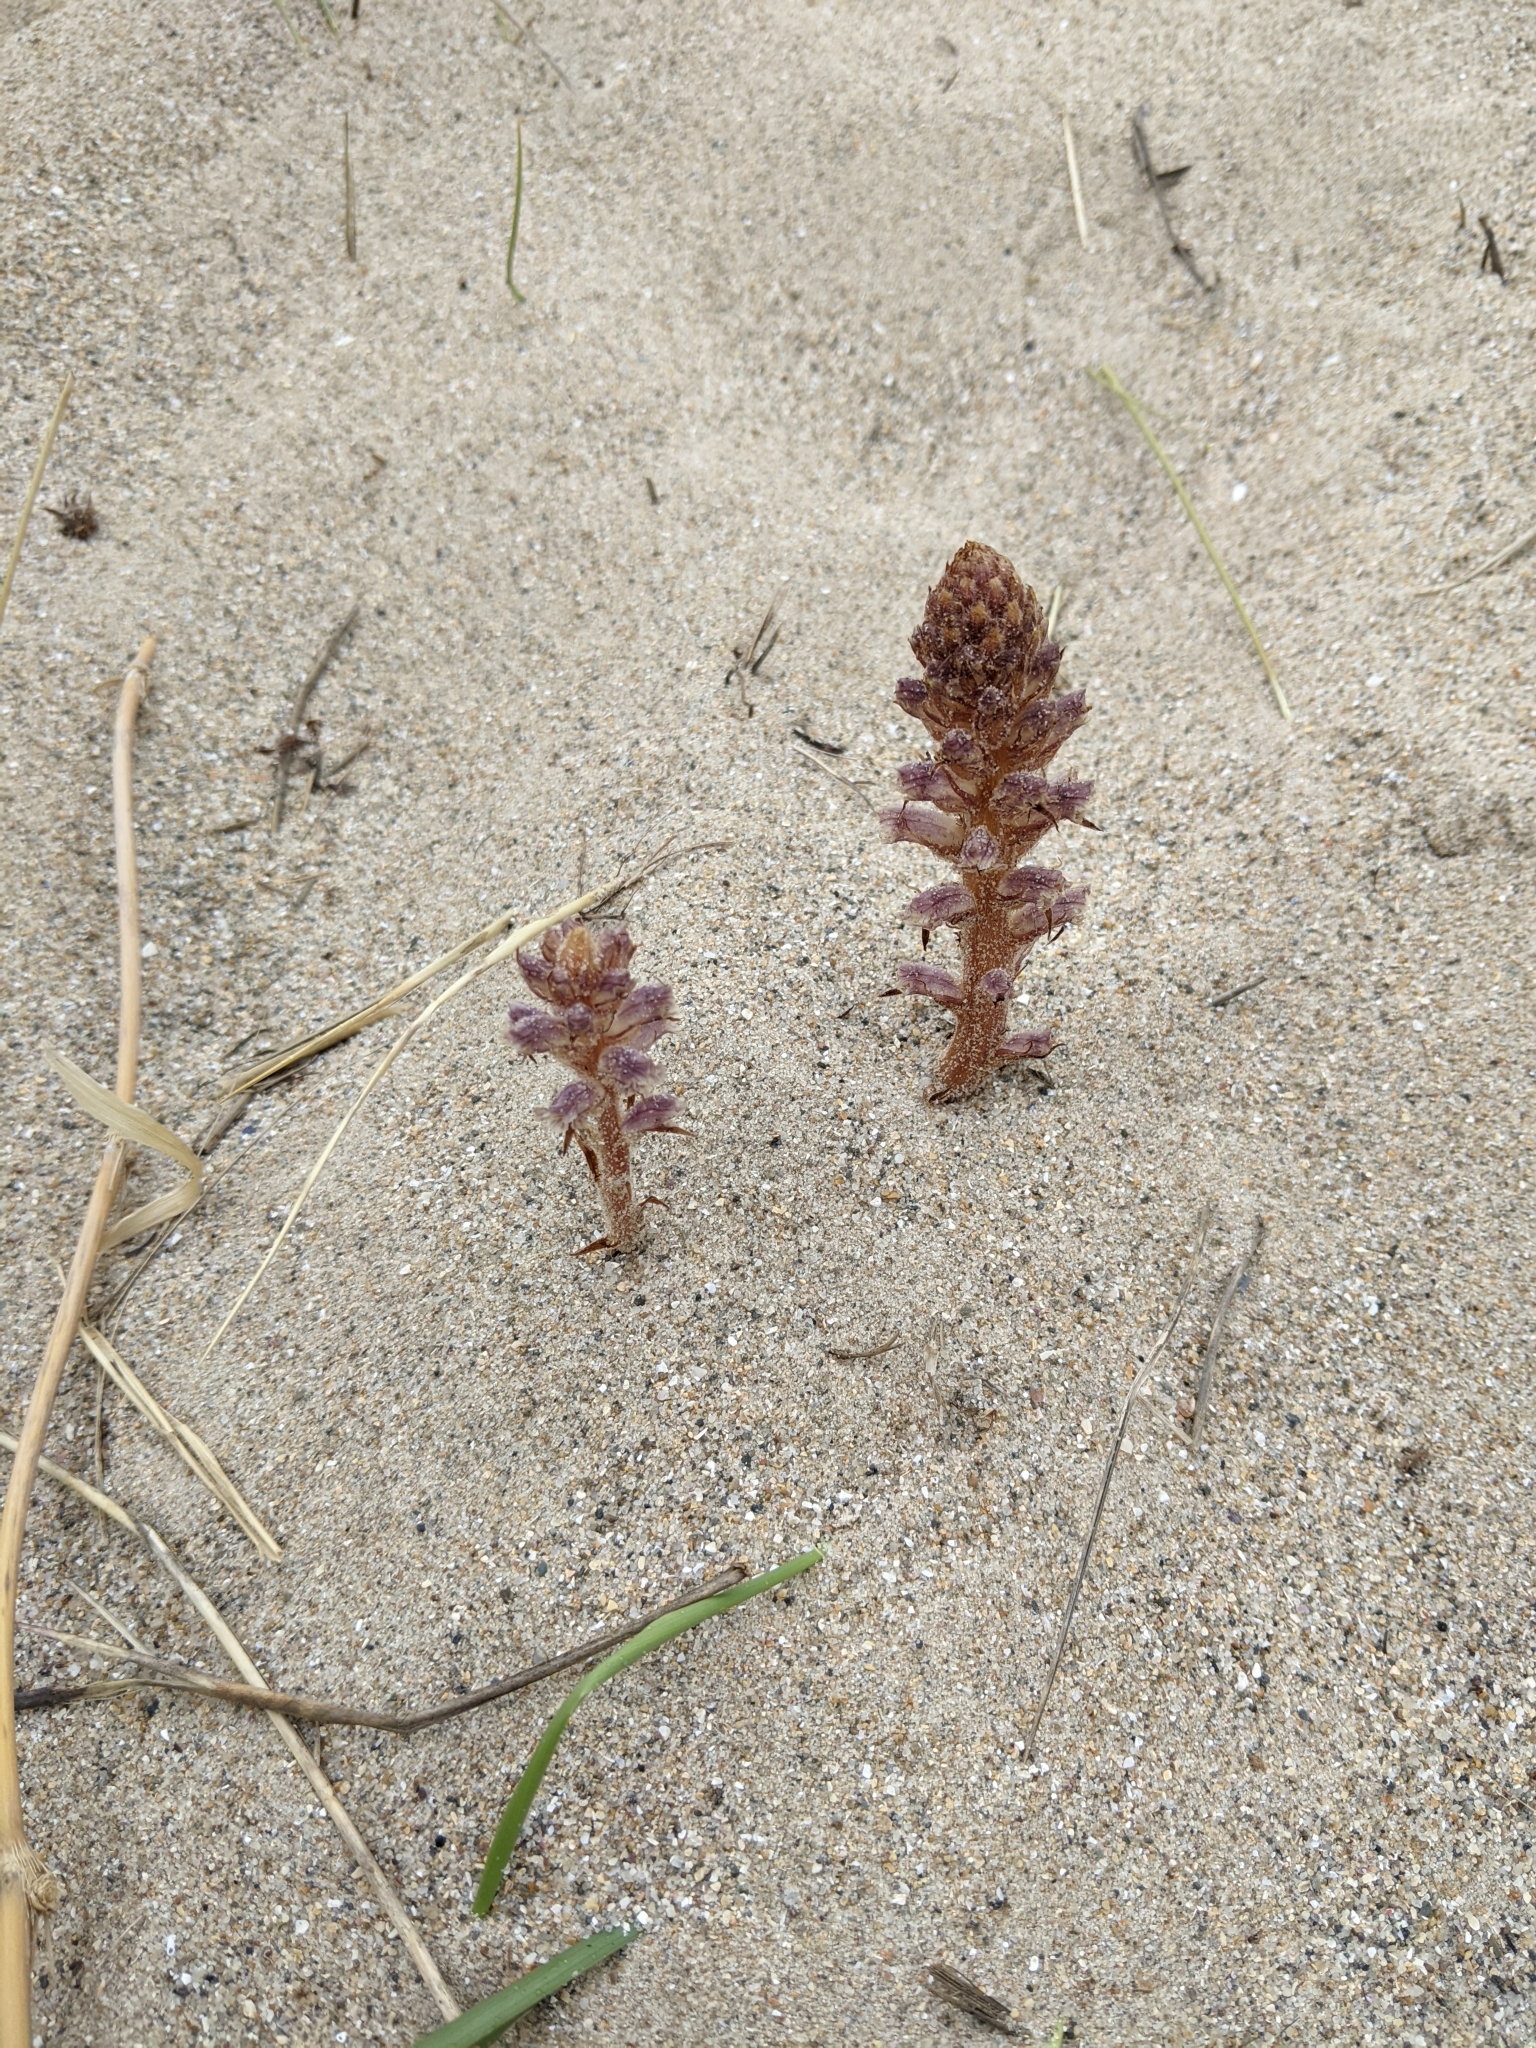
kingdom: Plantae
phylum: Tracheophyta
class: Magnoliopsida
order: Lamiales
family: Orobanchaceae
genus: Orobanche
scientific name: Orobanche minor
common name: Common broomrape
